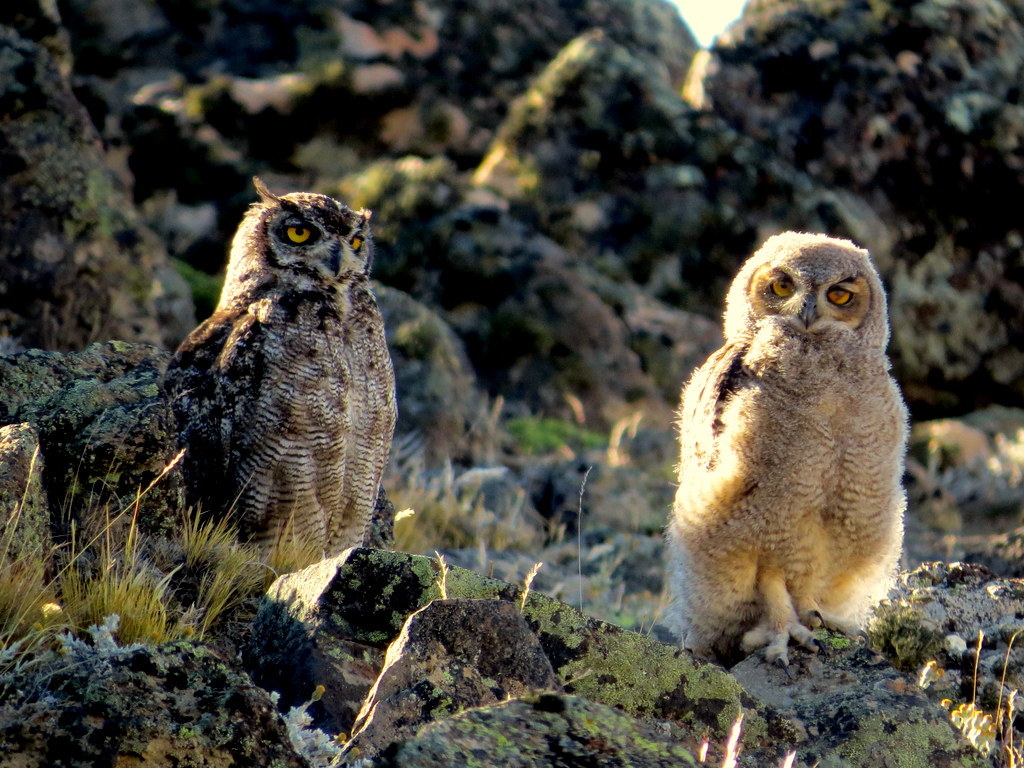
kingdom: Animalia
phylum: Chordata
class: Aves
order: Strigiformes
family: Strigidae
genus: Bubo
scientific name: Bubo magellanicus
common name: Lesser horned owl
